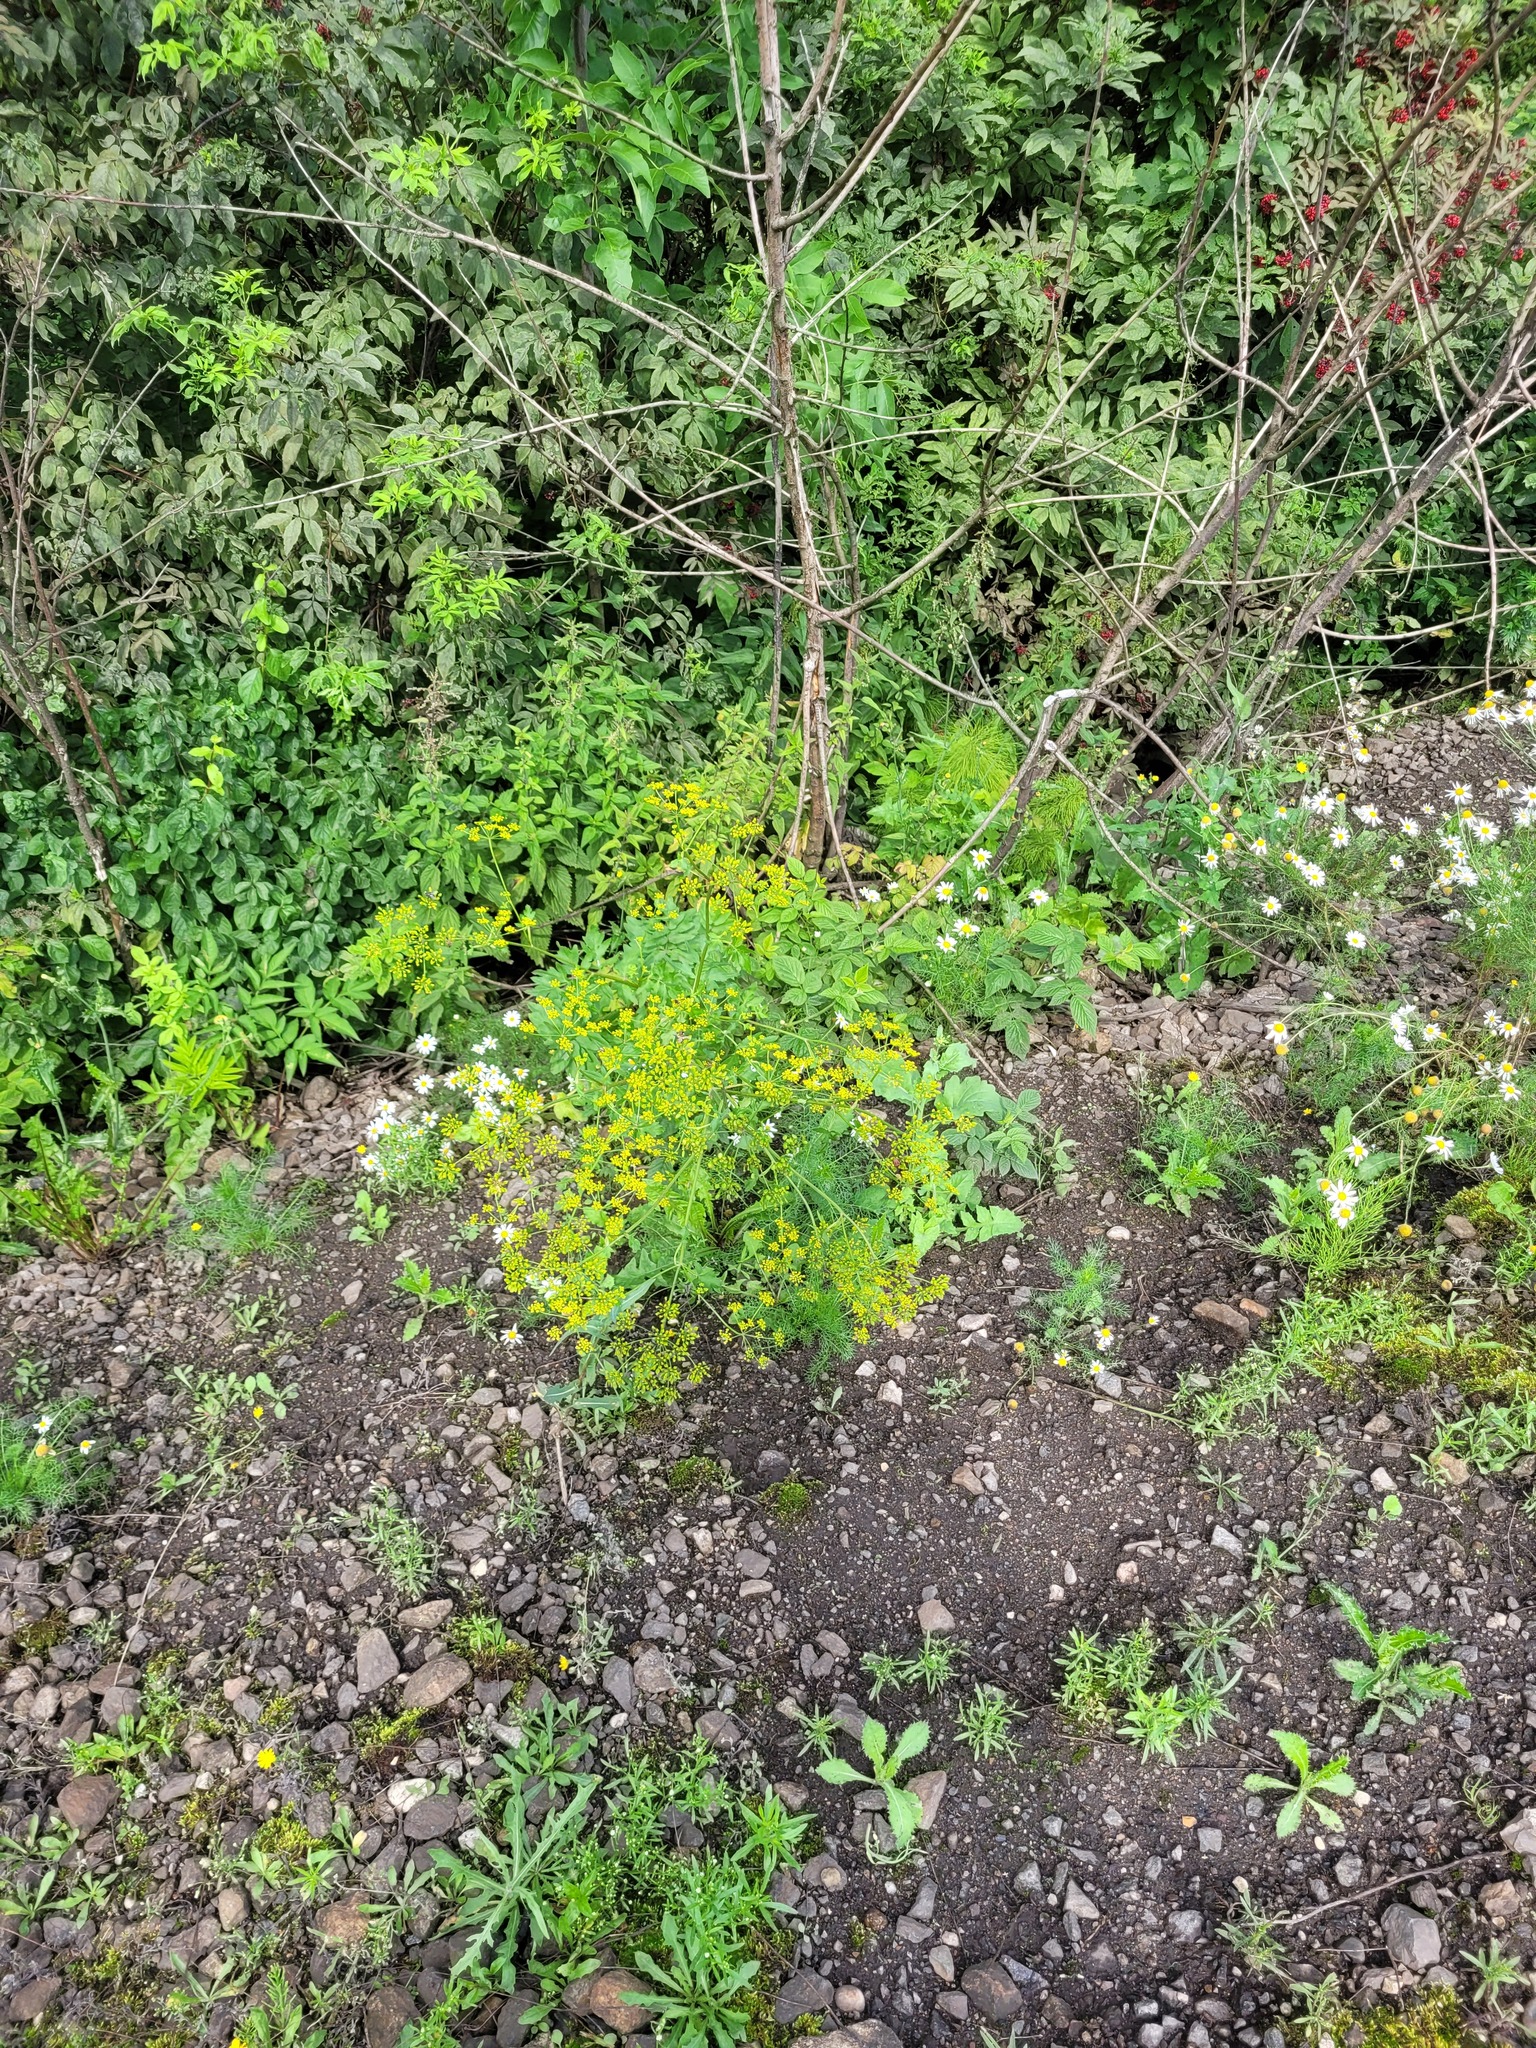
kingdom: Plantae
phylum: Tracheophyta
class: Magnoliopsida
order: Apiales
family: Apiaceae
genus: Pastinaca
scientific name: Pastinaca sativa
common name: Wild parsnip
